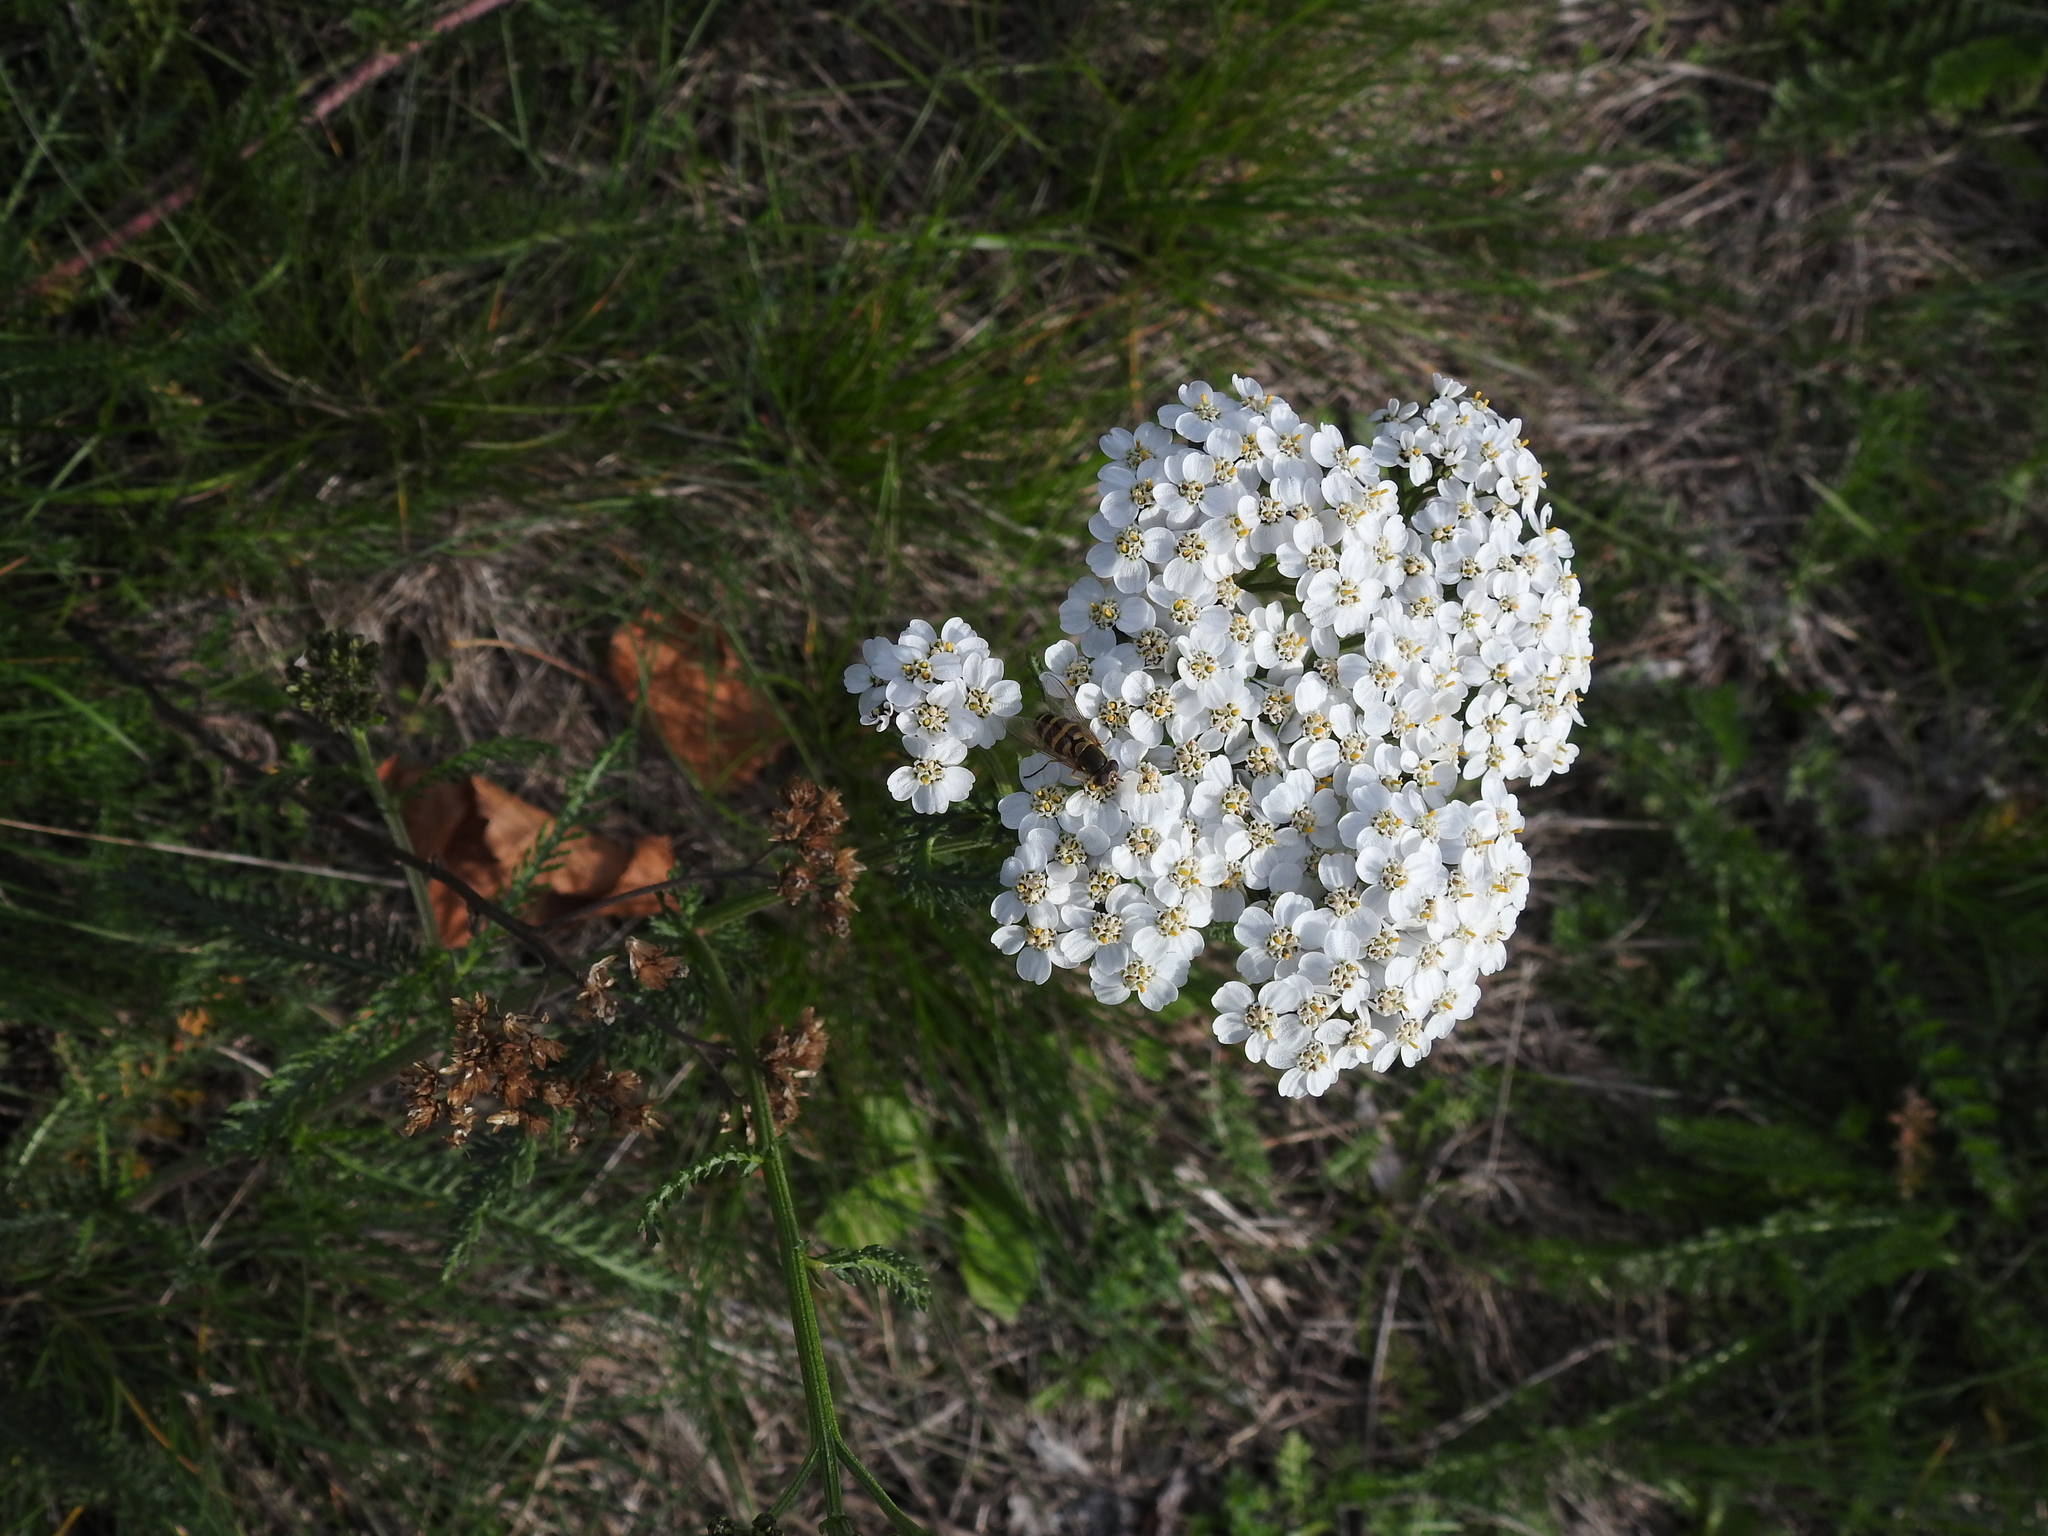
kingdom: Plantae
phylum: Tracheophyta
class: Magnoliopsida
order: Asterales
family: Asteraceae
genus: Achillea
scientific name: Achillea millefolium
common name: Yarrow
